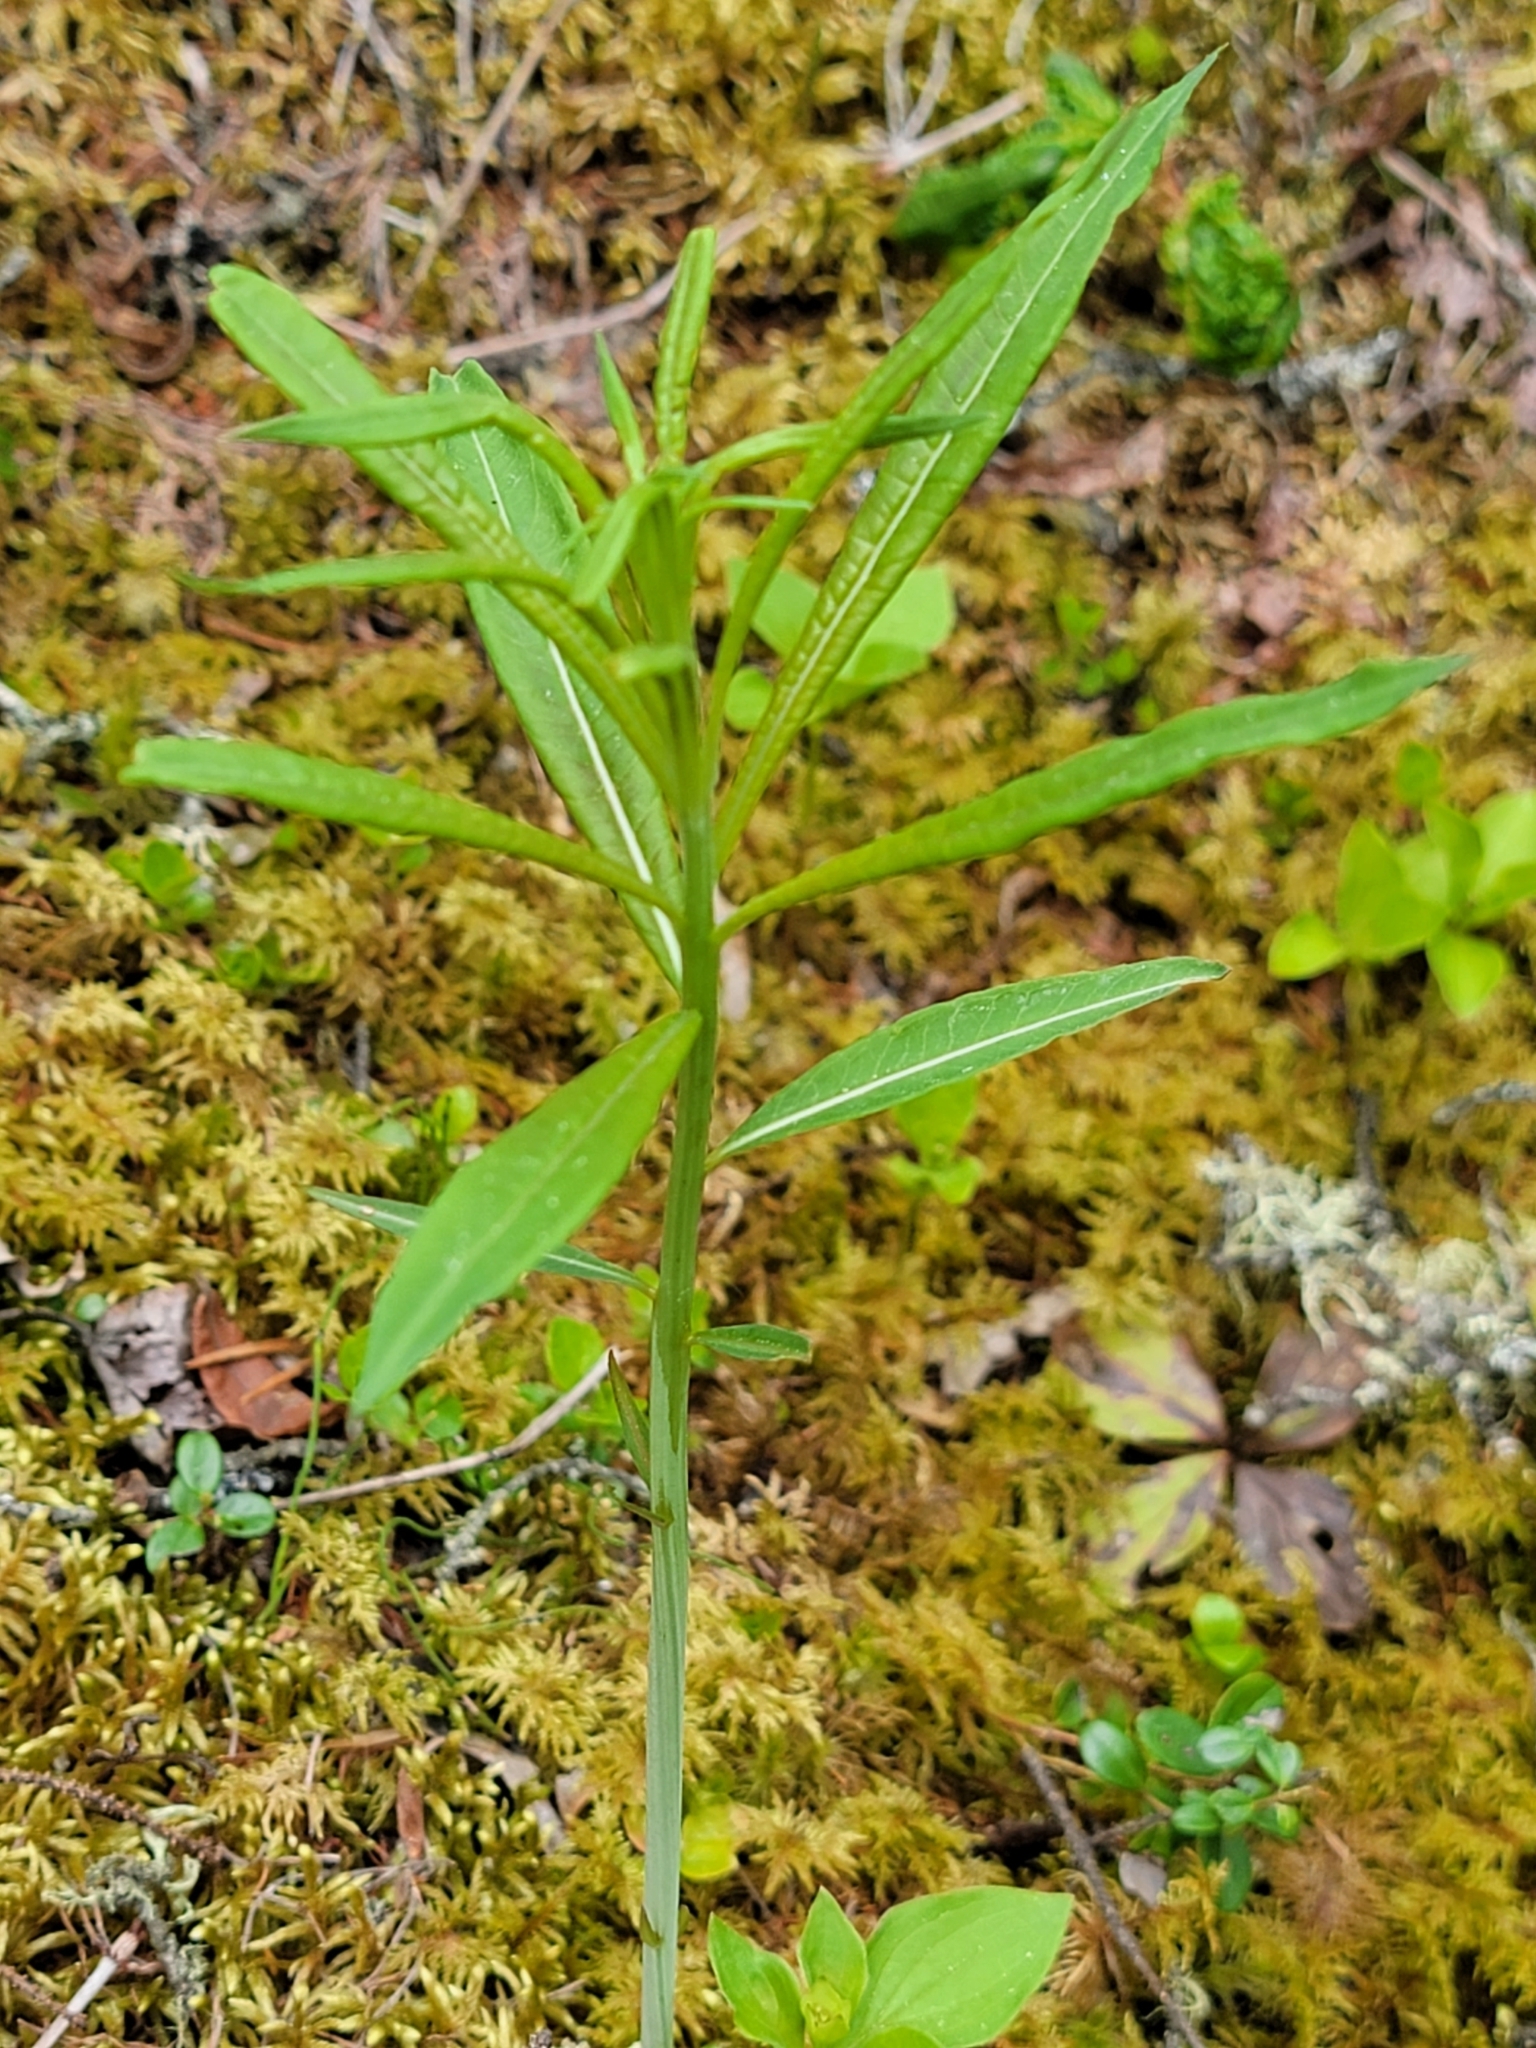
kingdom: Plantae
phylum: Tracheophyta
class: Magnoliopsida
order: Myrtales
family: Onagraceae
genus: Chamaenerion
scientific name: Chamaenerion angustifolium
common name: Fireweed
